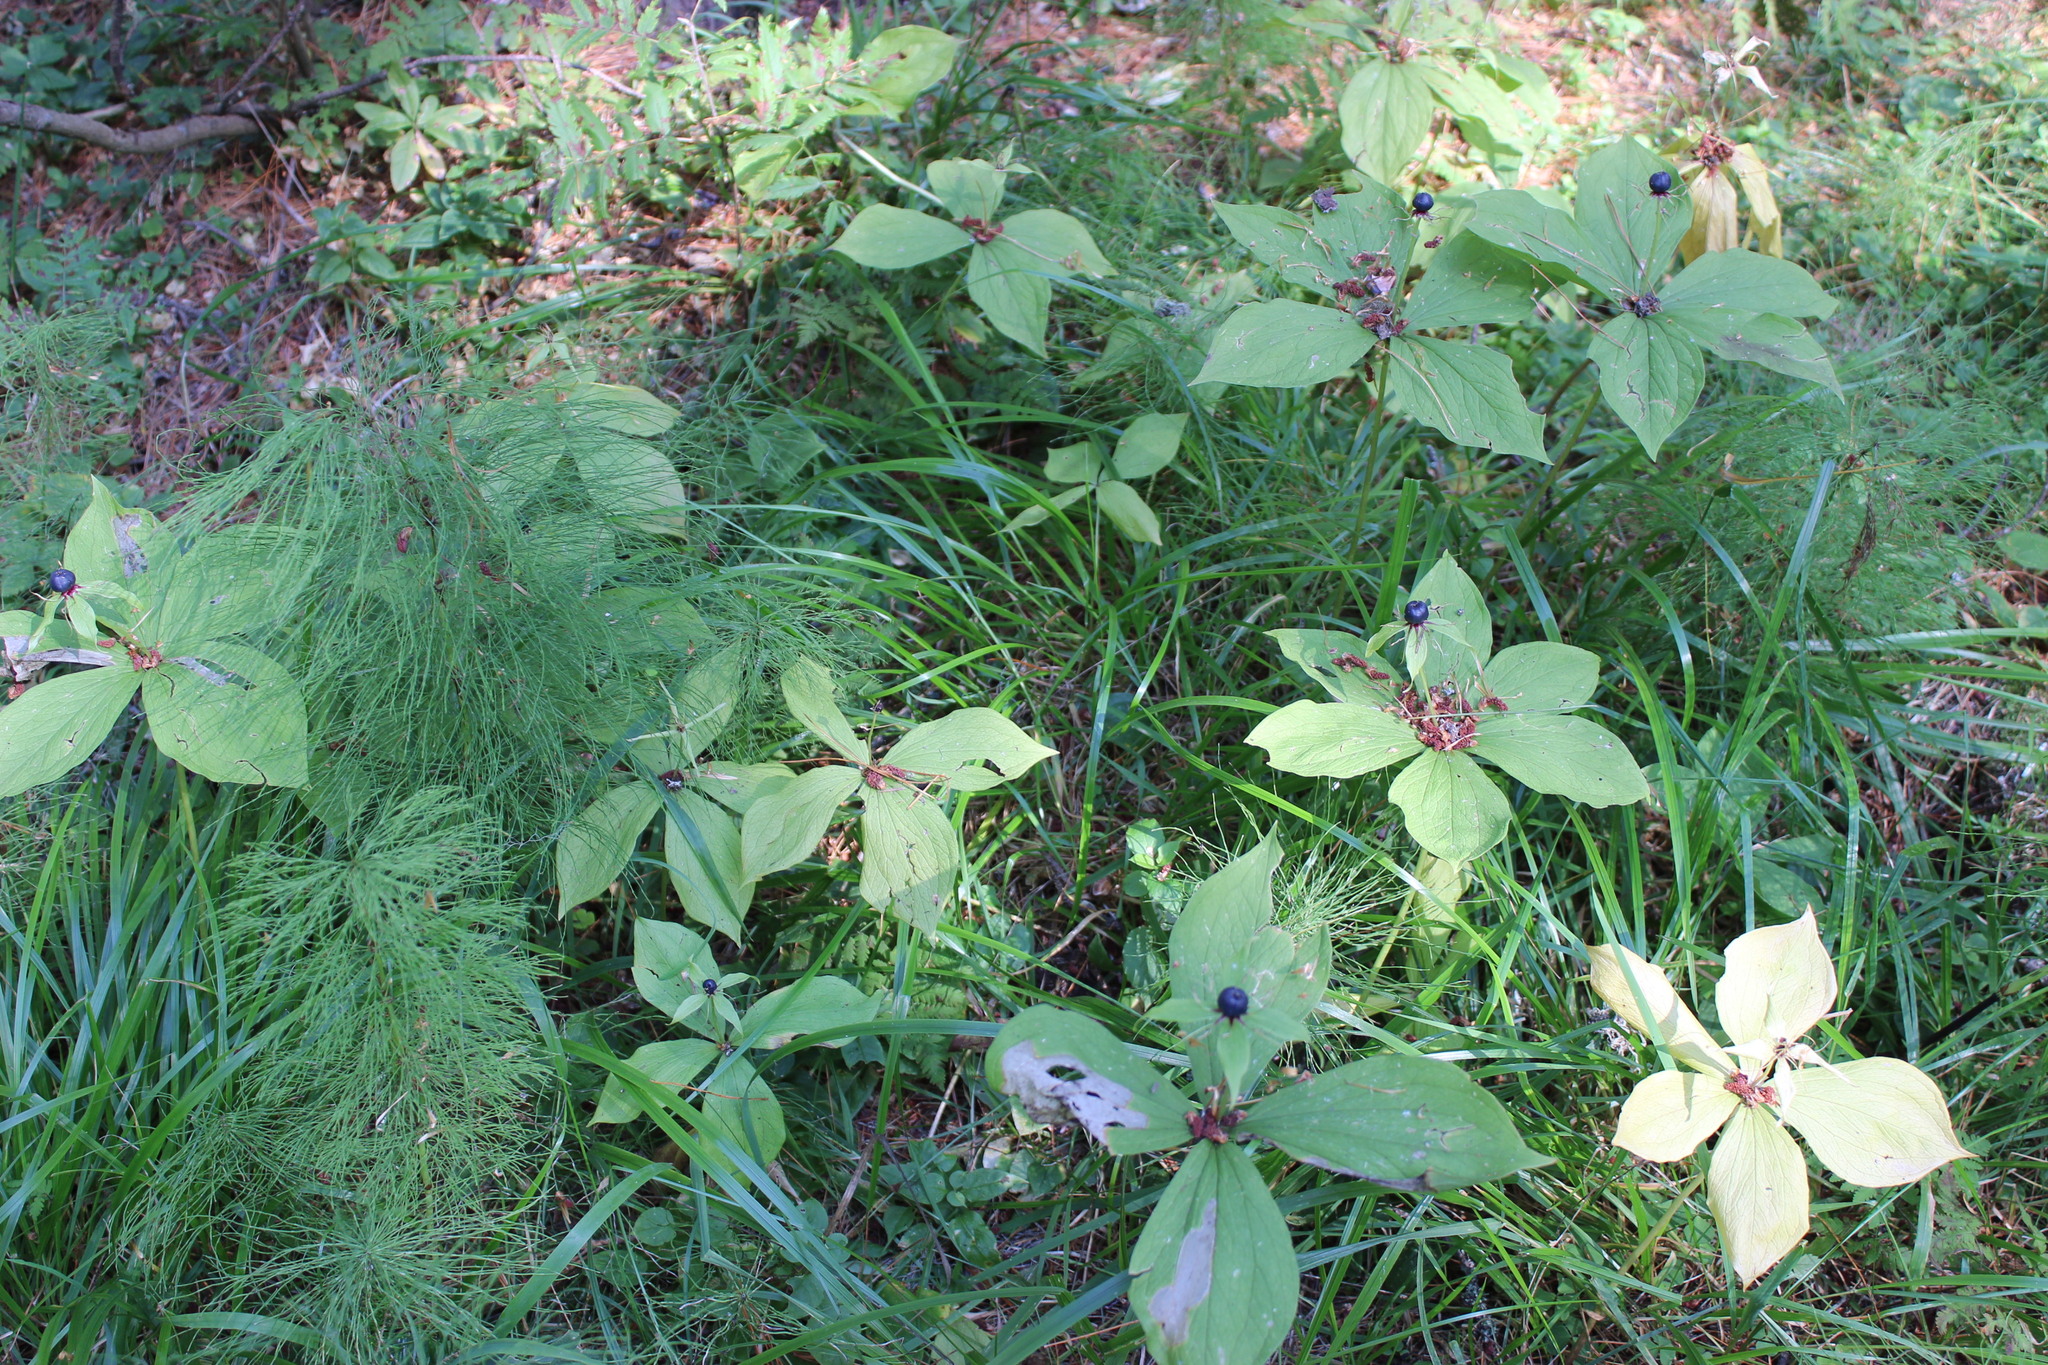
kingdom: Plantae
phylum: Tracheophyta
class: Liliopsida
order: Liliales
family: Melanthiaceae
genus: Paris
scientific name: Paris quadrifolia
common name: Herb-paris
